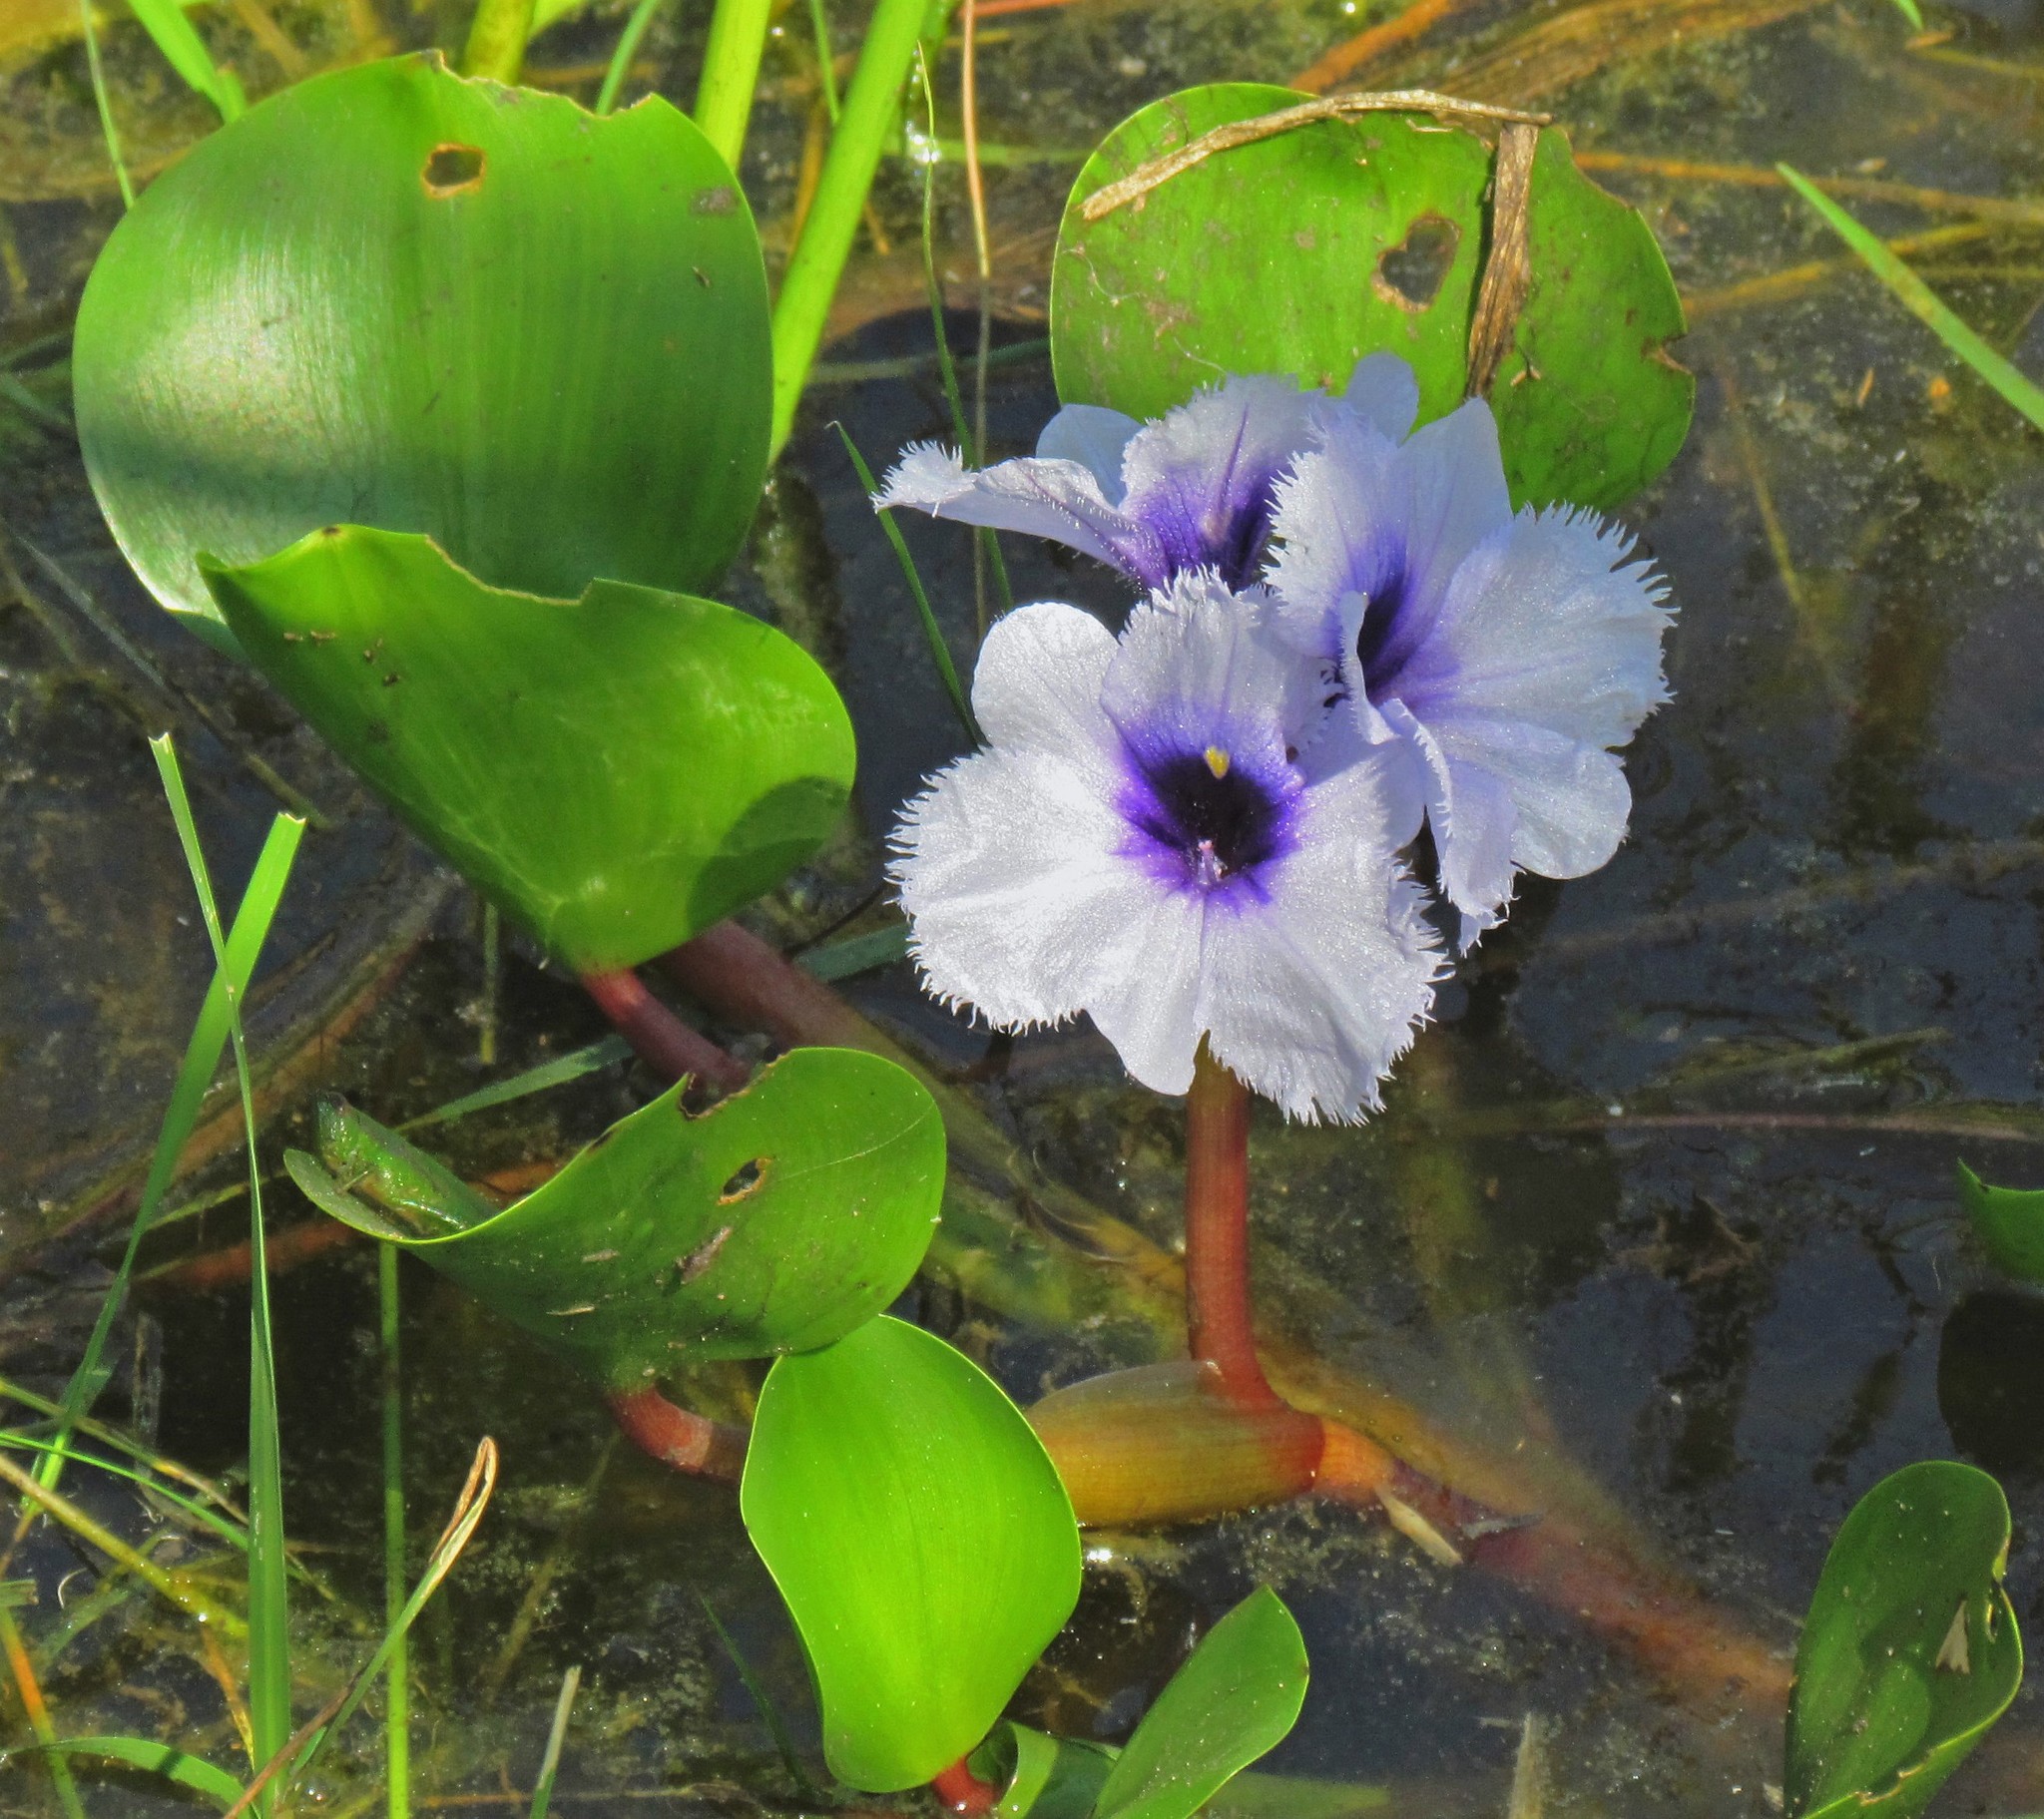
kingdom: Plantae
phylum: Tracheophyta
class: Liliopsida
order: Commelinales
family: Pontederiaceae
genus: Pontederia
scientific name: Pontederia azurea
